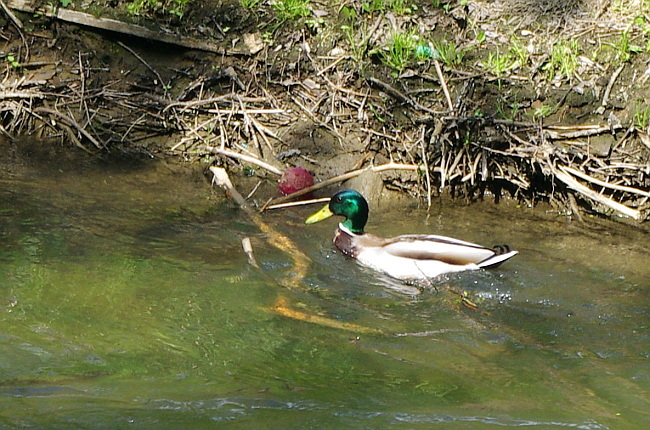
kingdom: Animalia
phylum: Chordata
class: Aves
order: Anseriformes
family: Anatidae
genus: Anas
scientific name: Anas platyrhynchos
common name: Mallard
